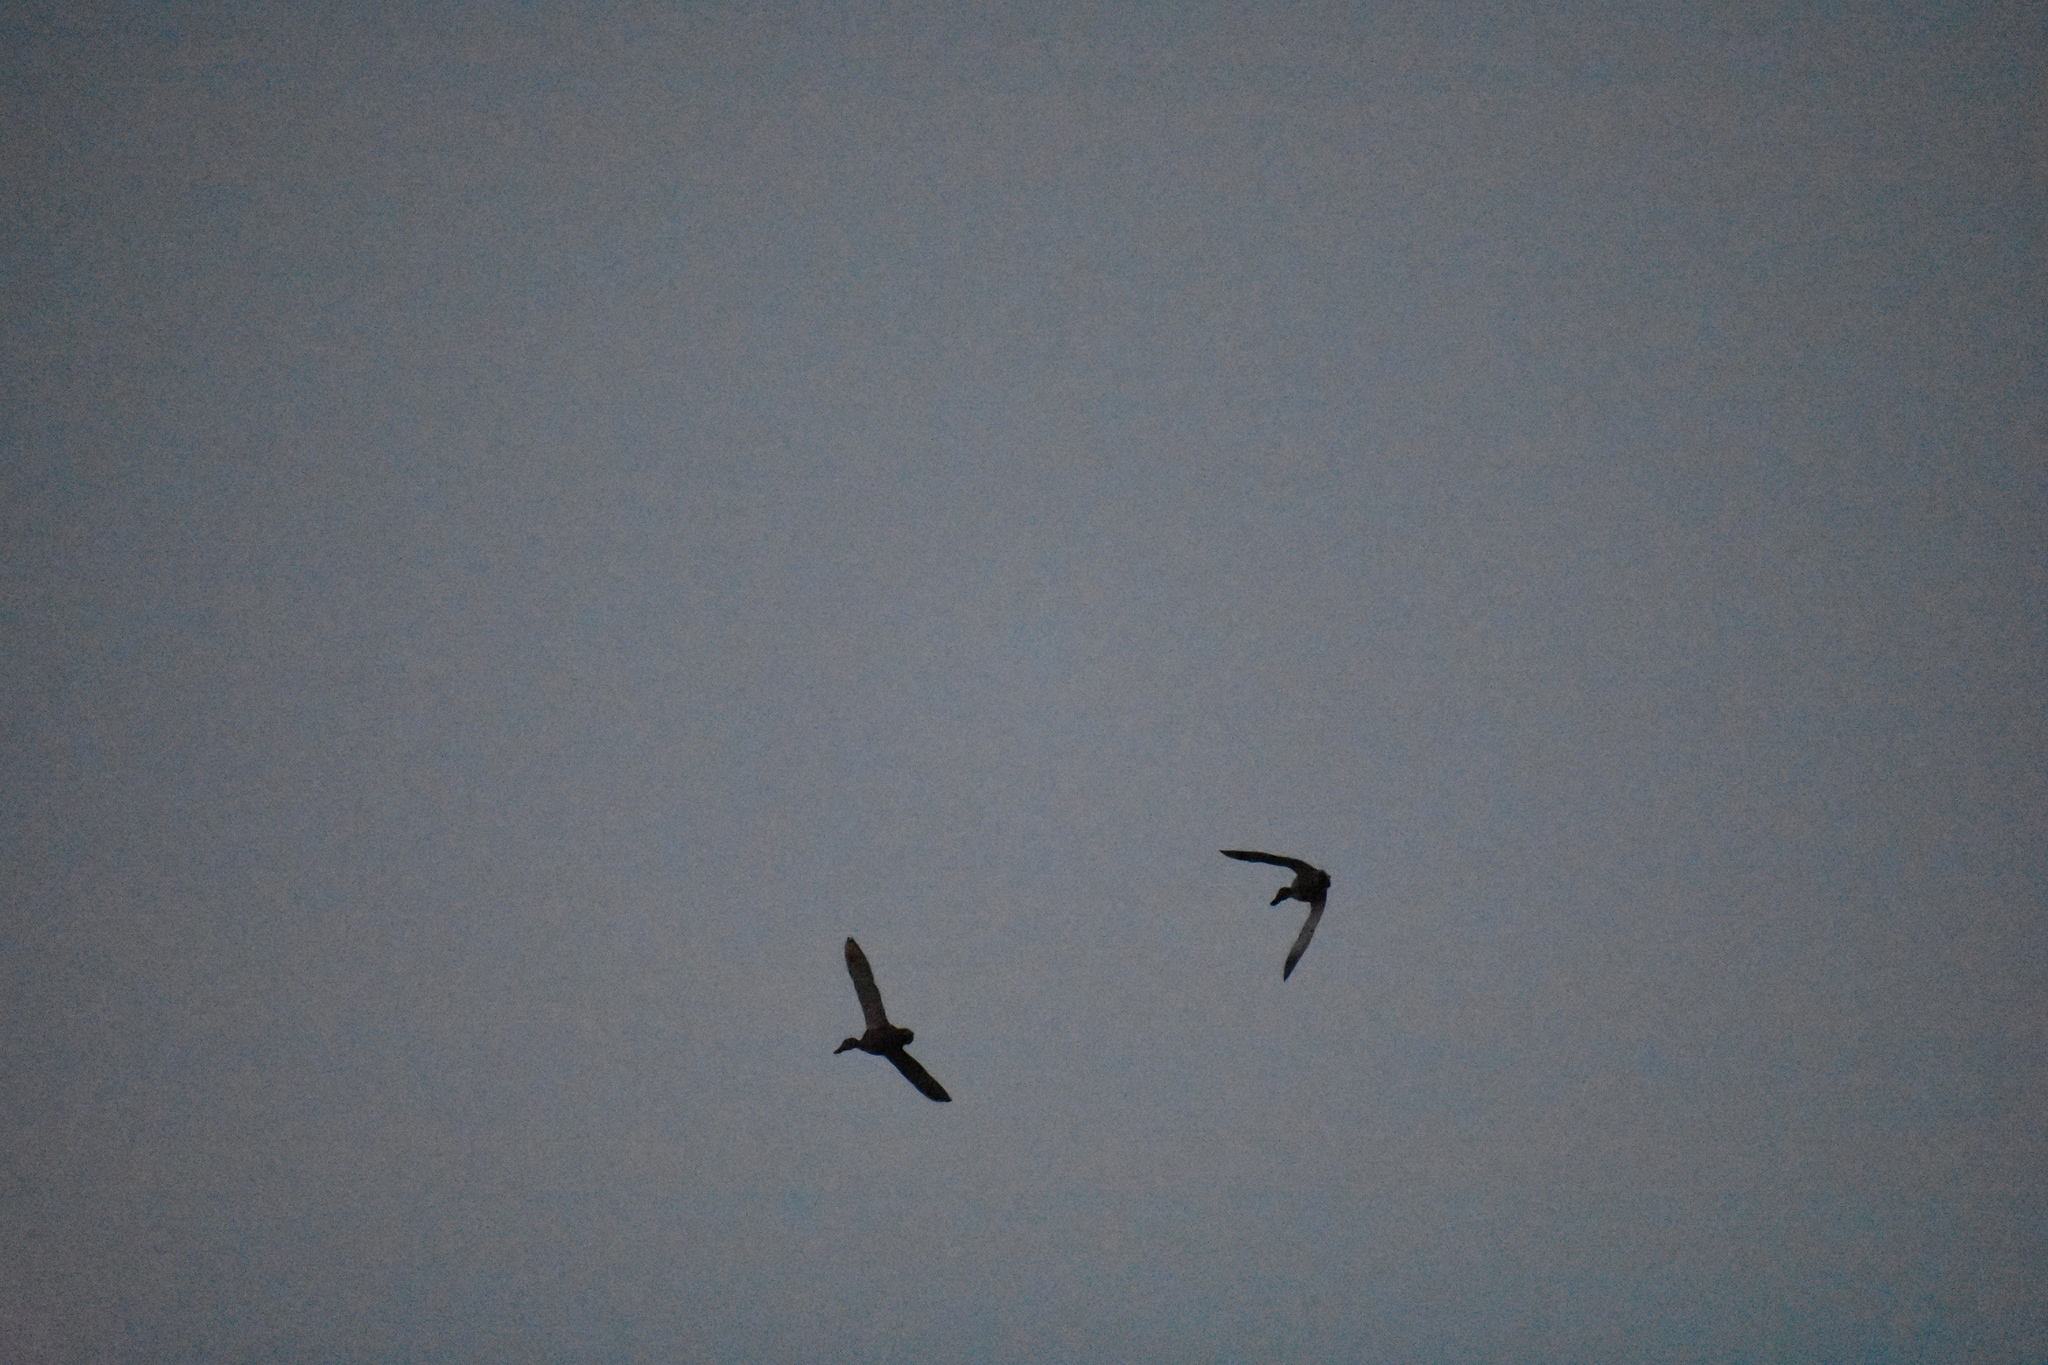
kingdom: Animalia
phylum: Chordata
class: Aves
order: Anseriformes
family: Anatidae
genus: Anas
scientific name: Anas platyrhynchos
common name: Mallard
